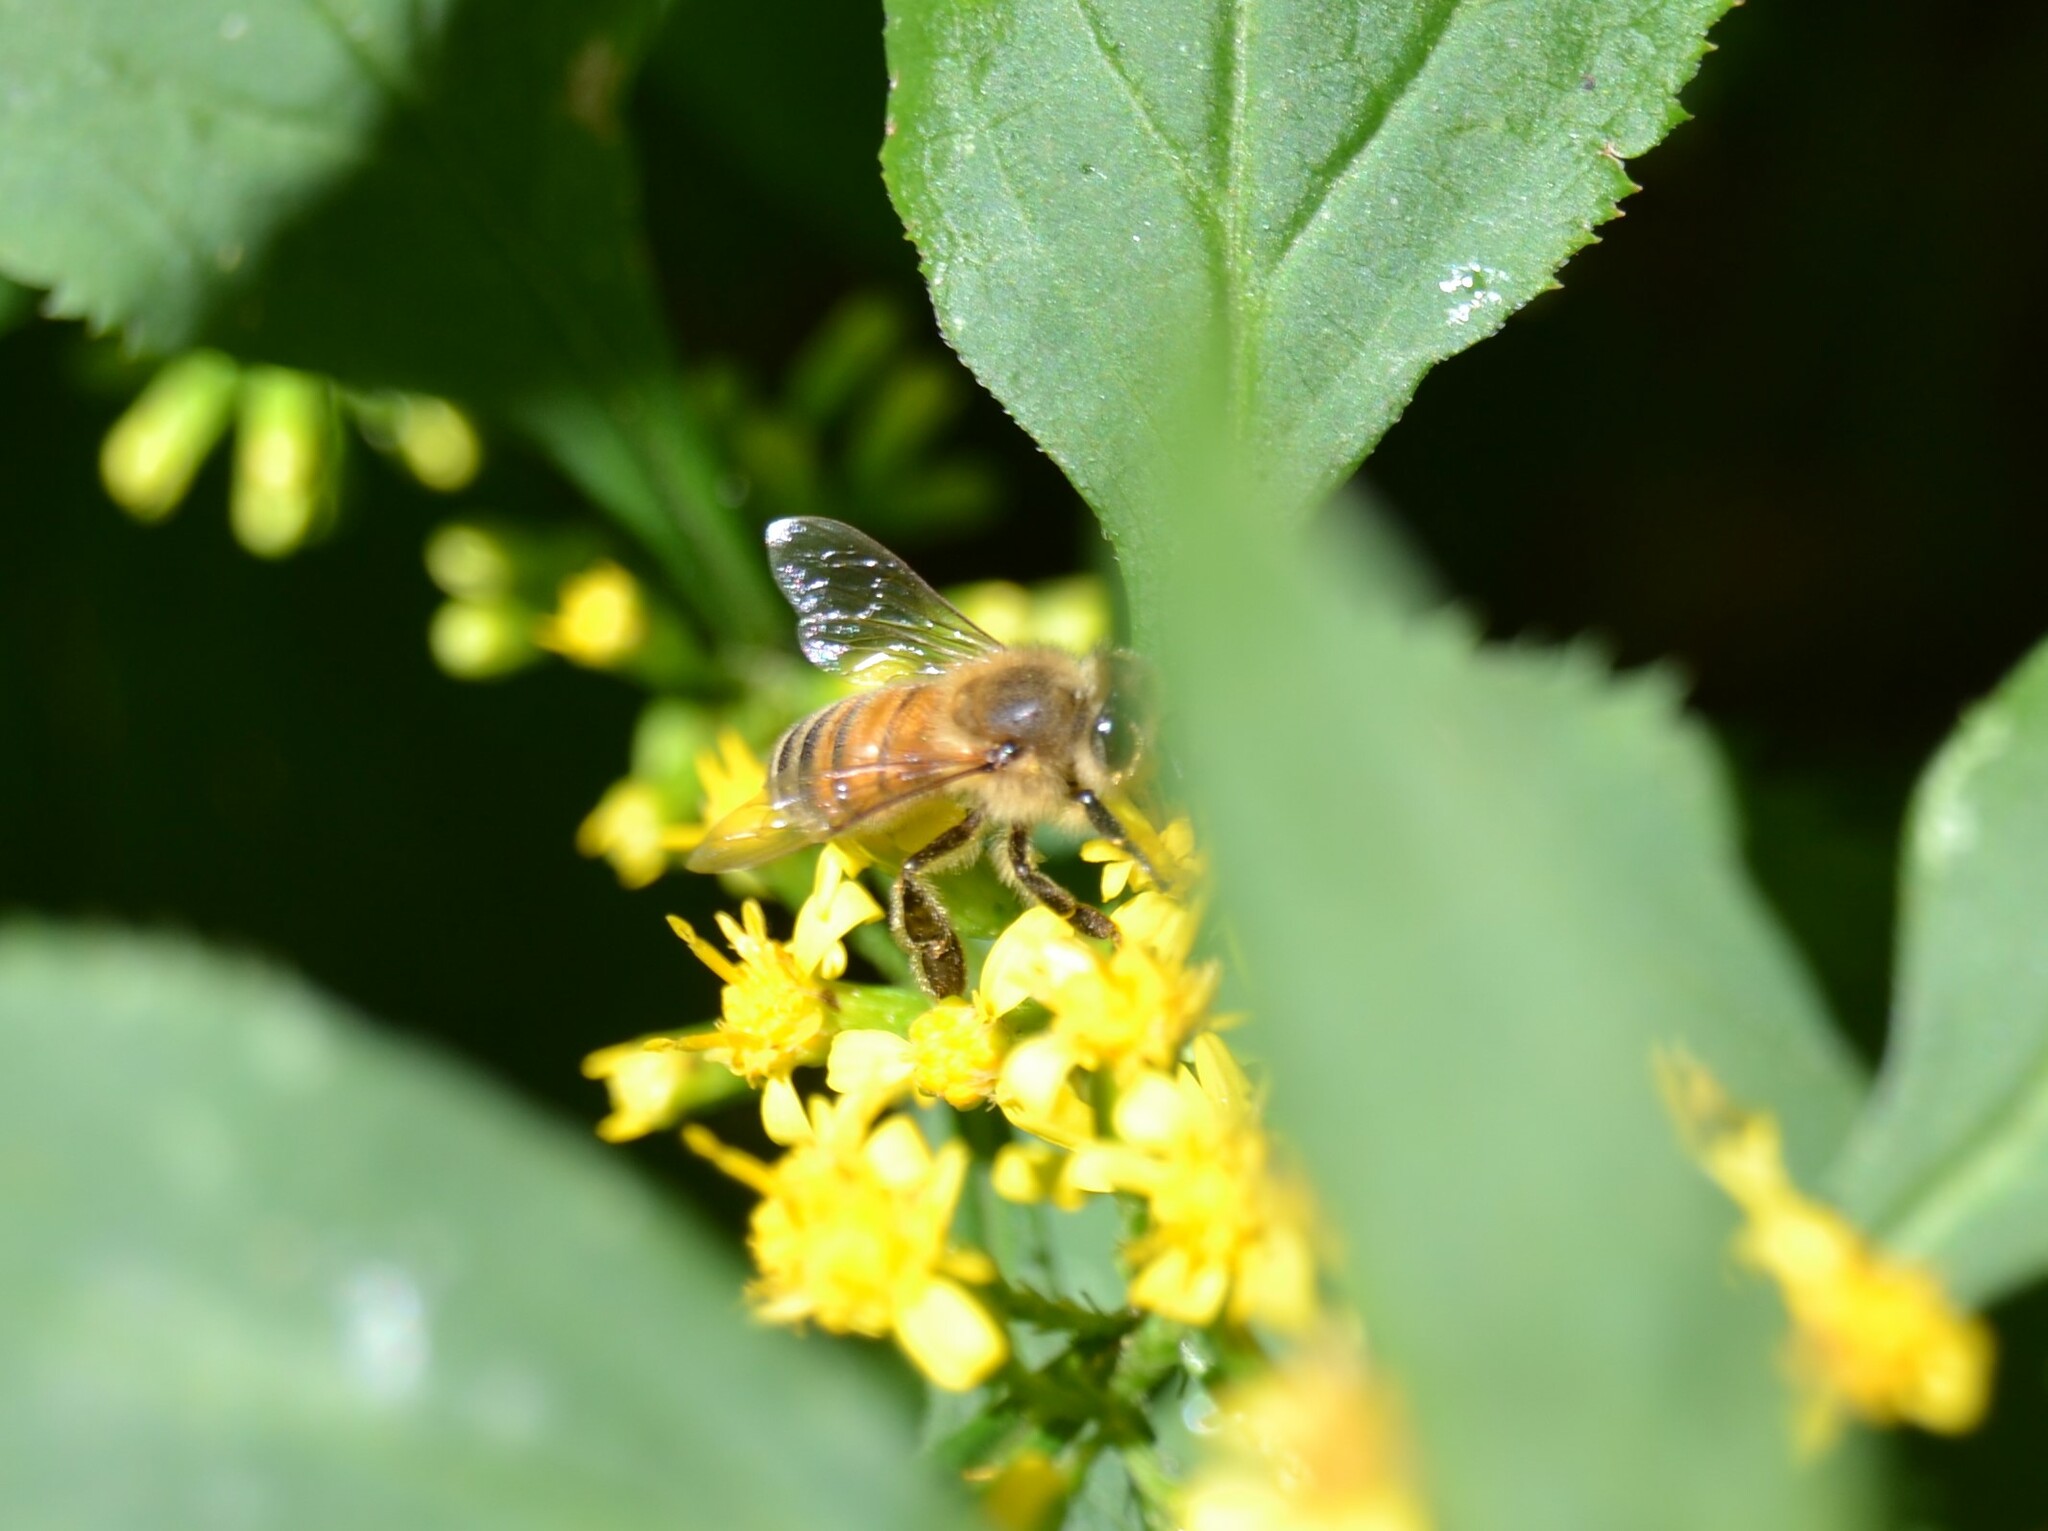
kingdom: Animalia
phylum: Arthropoda
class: Insecta
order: Hymenoptera
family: Apidae
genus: Apis
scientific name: Apis mellifera
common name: Honey bee
